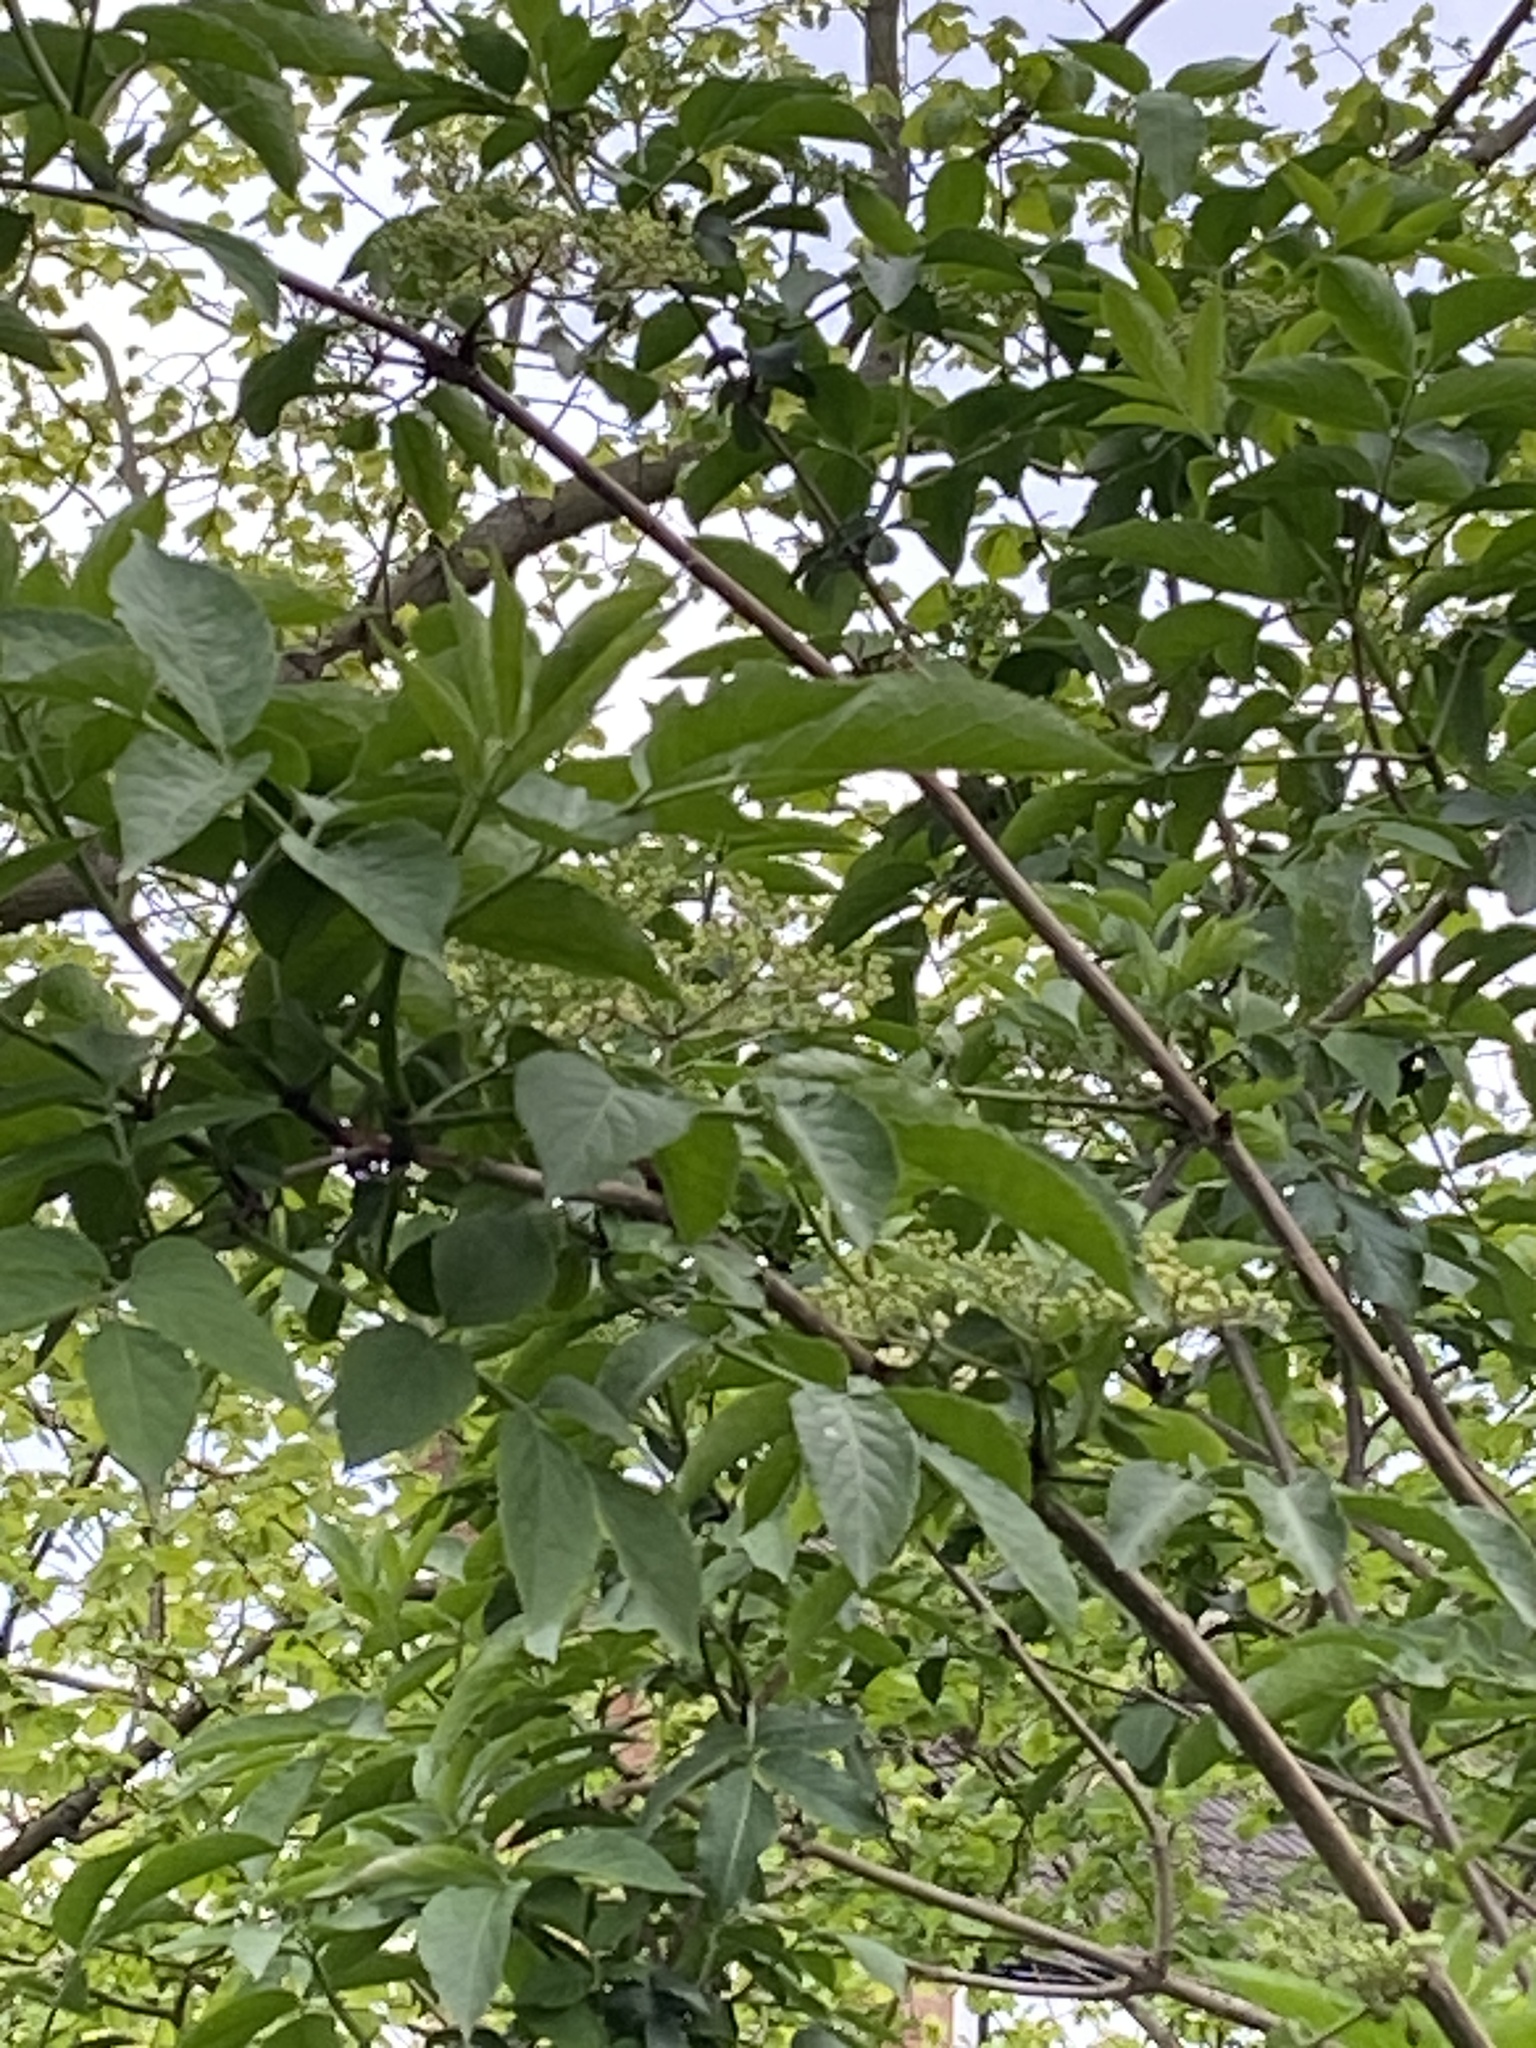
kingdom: Plantae
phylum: Tracheophyta
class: Magnoliopsida
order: Dipsacales
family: Viburnaceae
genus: Sambucus
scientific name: Sambucus nigra
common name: Elder
